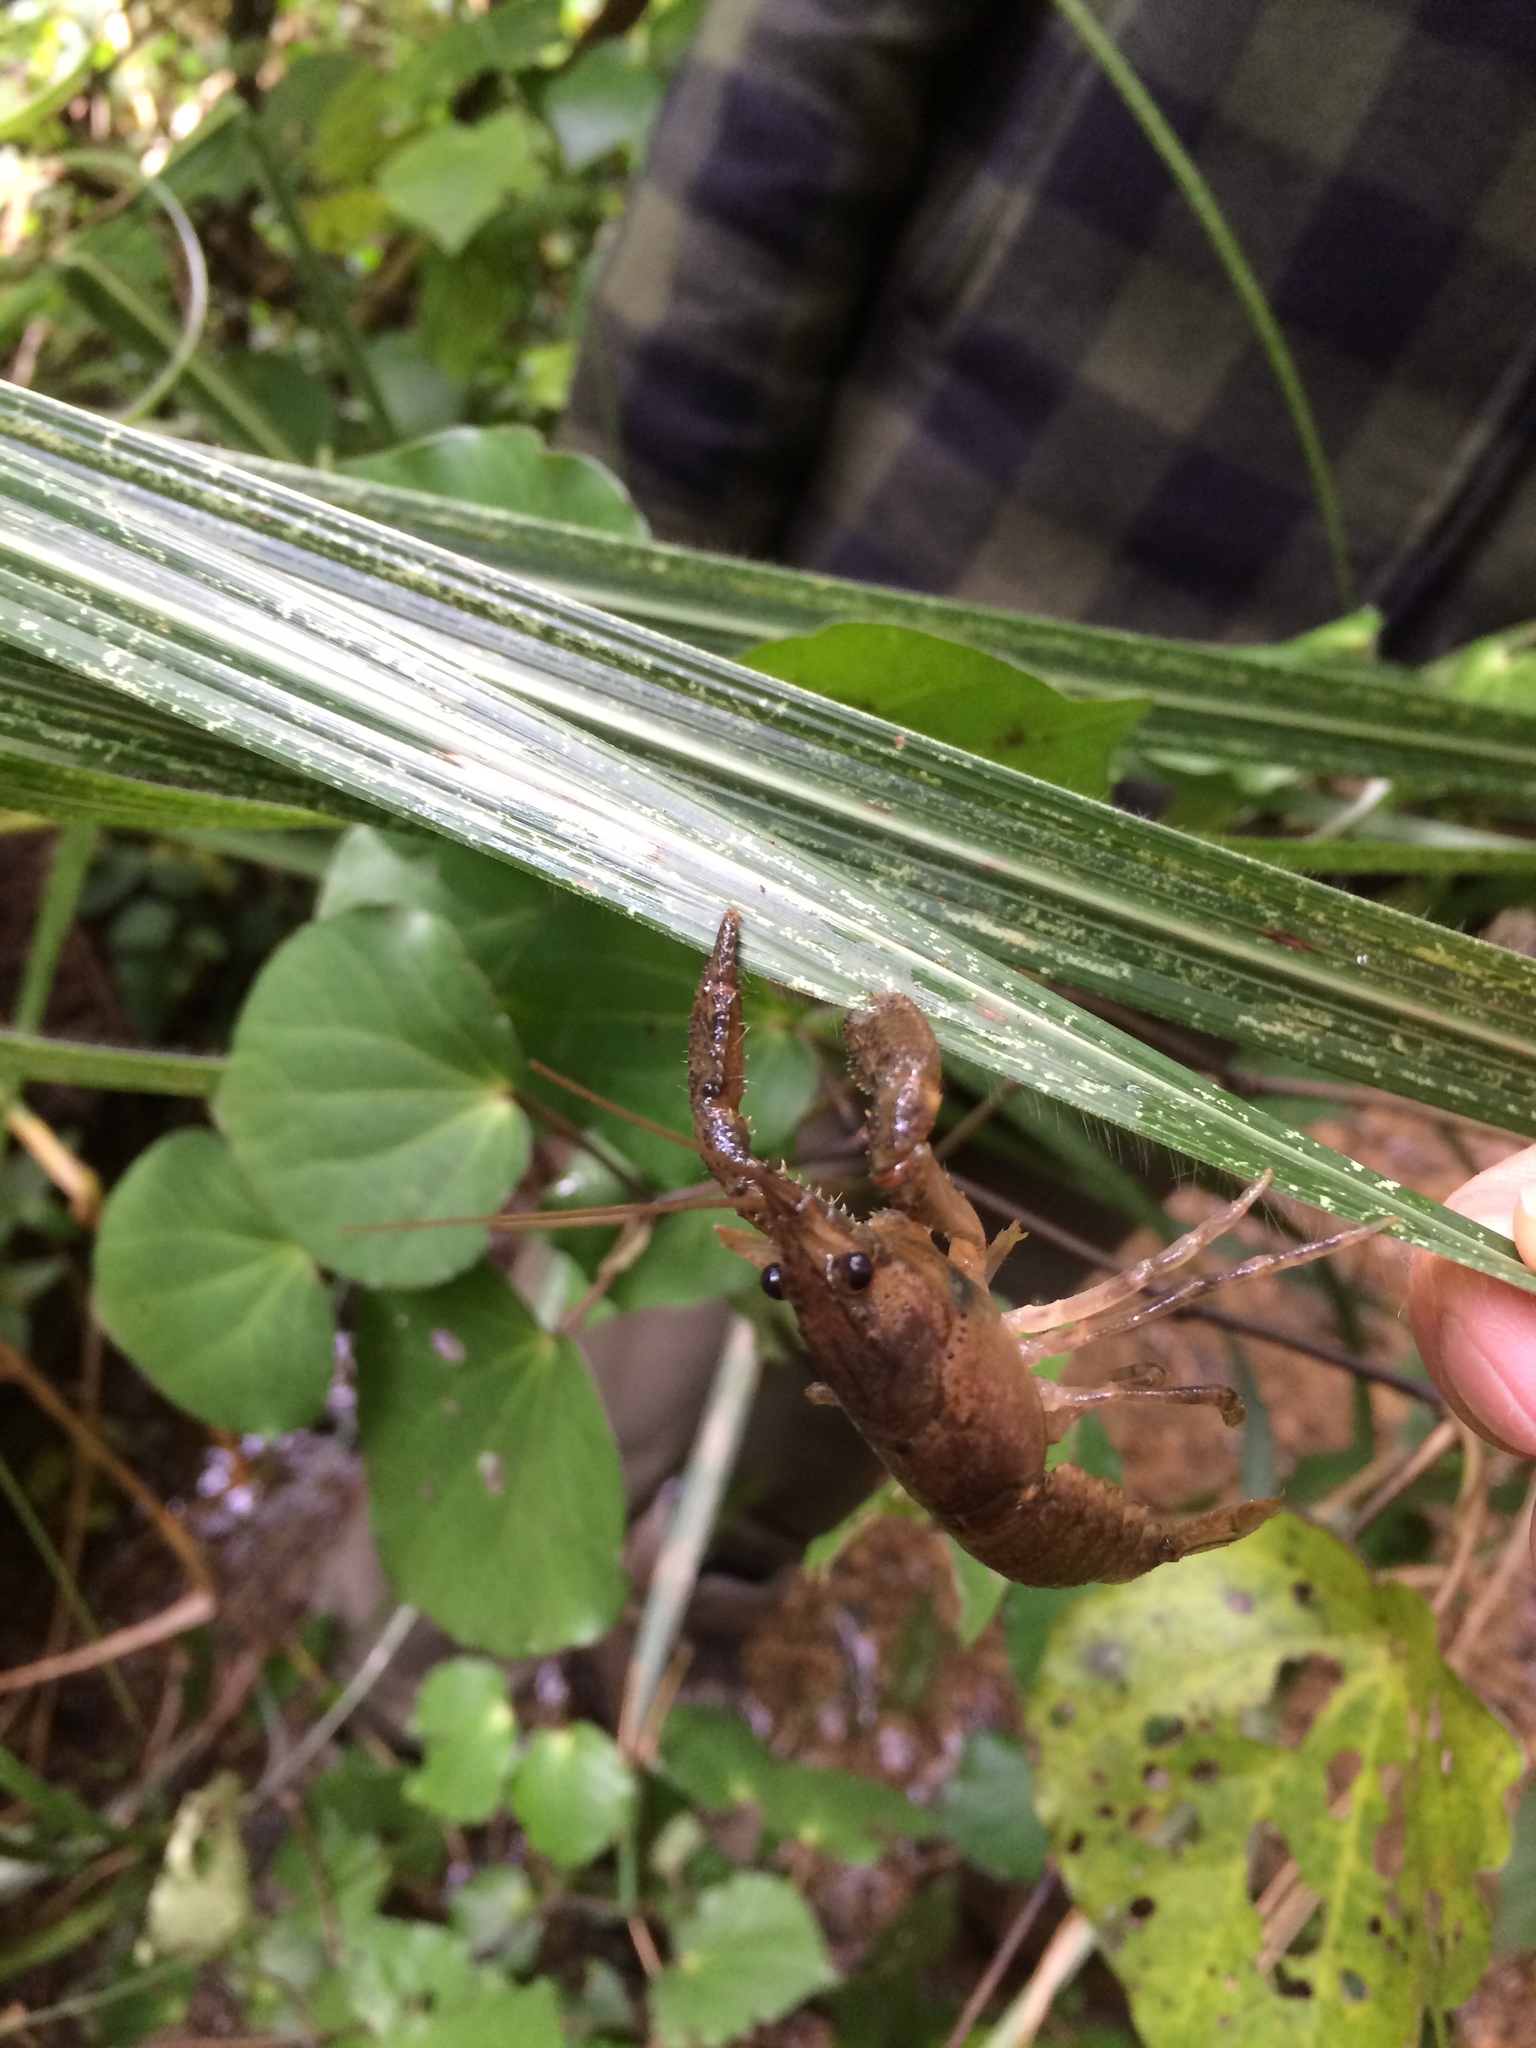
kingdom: Animalia
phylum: Arthropoda
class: Malacostraca
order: Decapoda
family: Parastacidae
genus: Paranephrops
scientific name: Paranephrops planifrons
